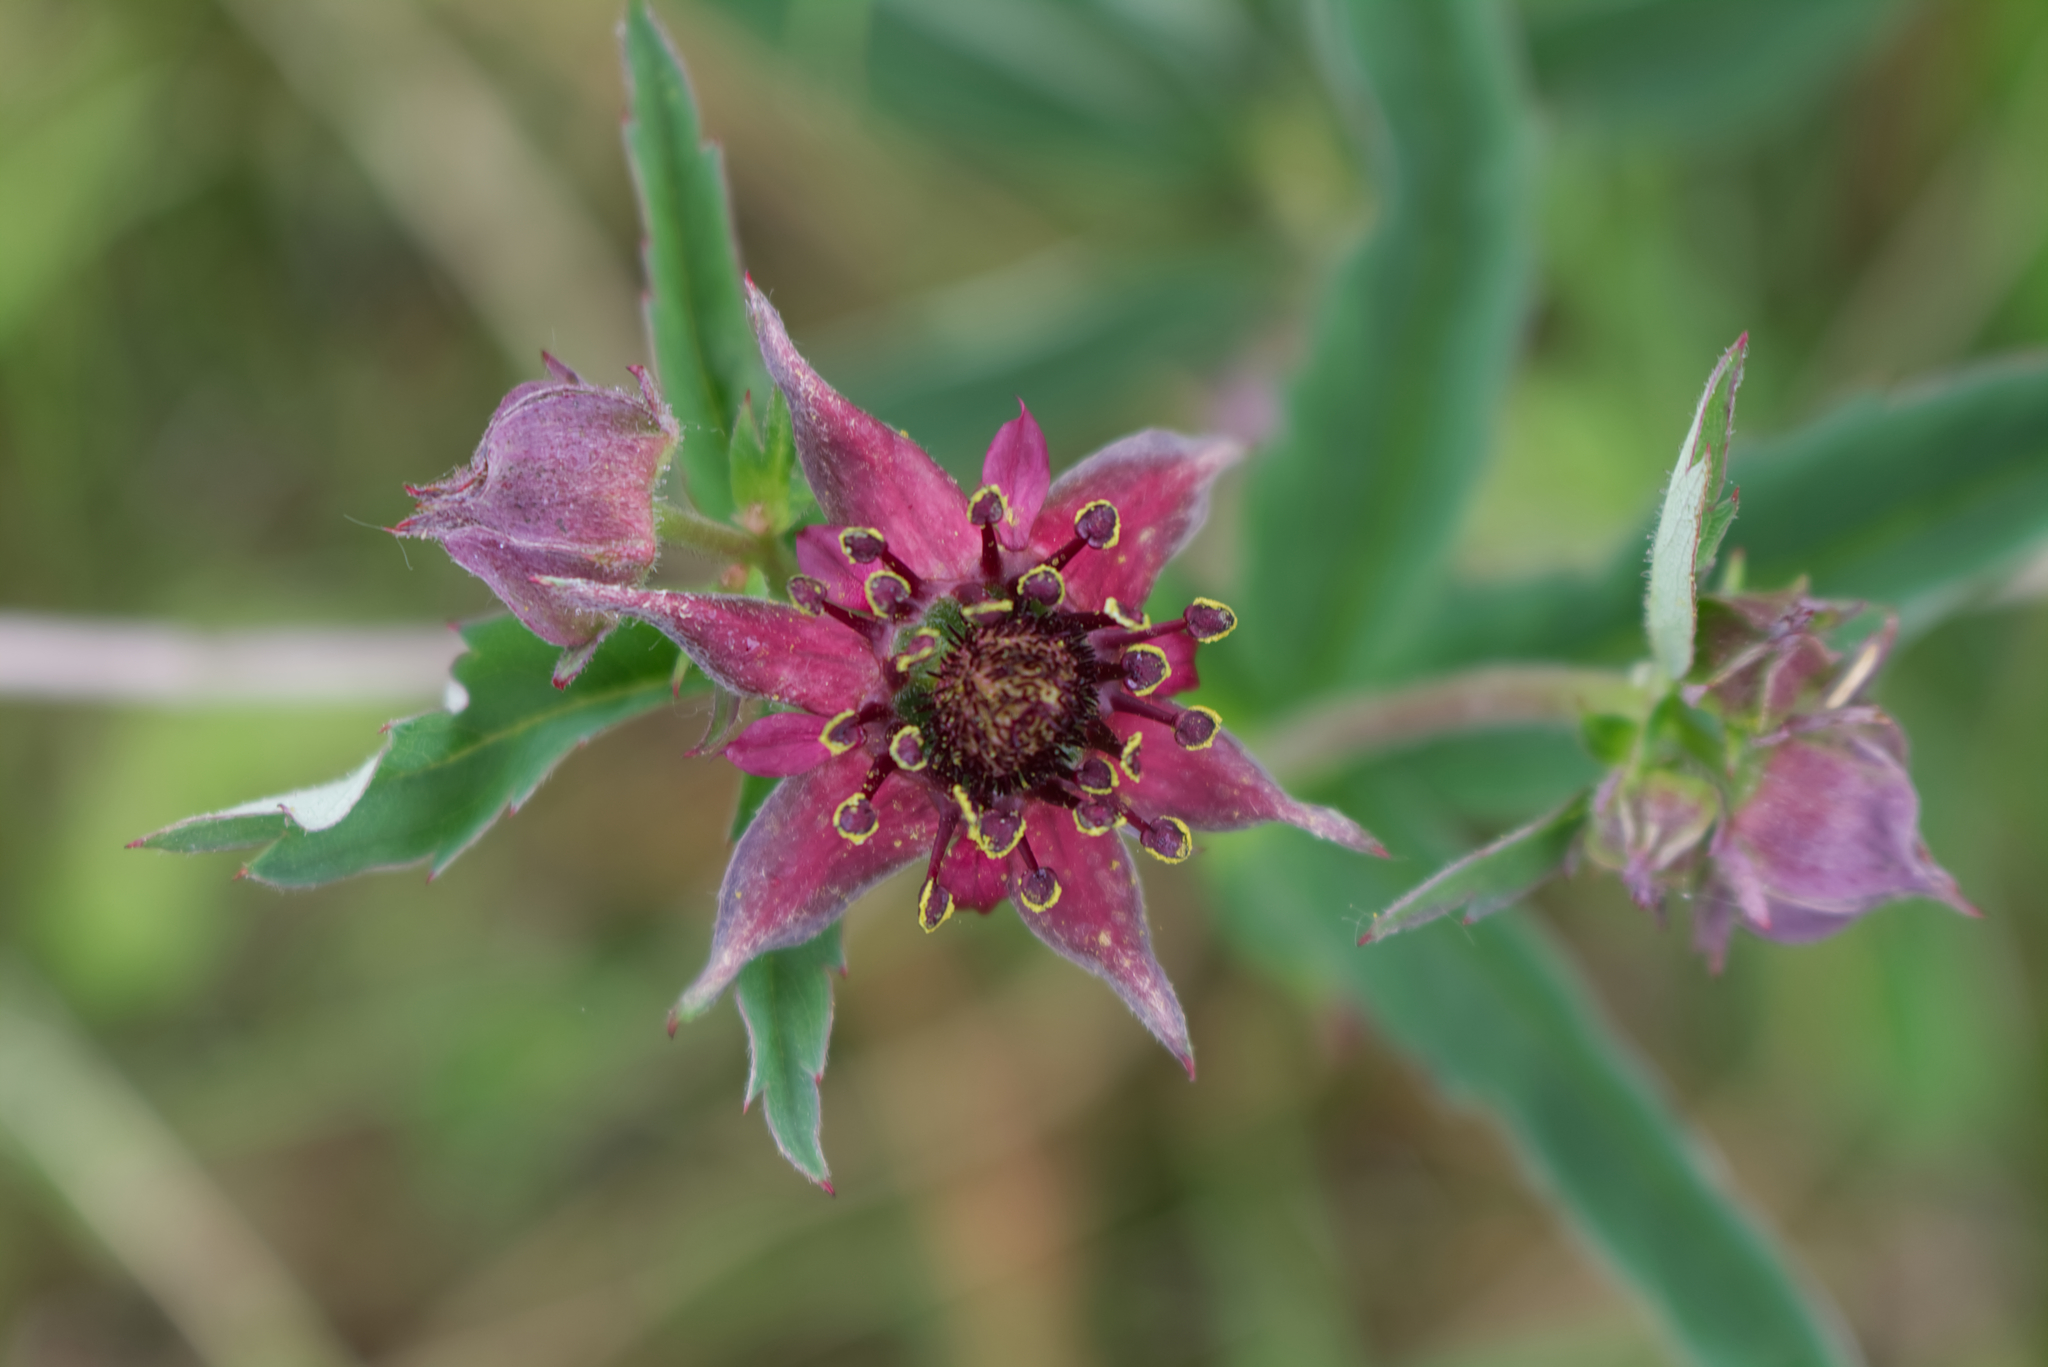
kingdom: Plantae
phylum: Tracheophyta
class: Magnoliopsida
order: Rosales
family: Rosaceae
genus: Comarum
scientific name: Comarum palustre
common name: Marsh cinquefoil
